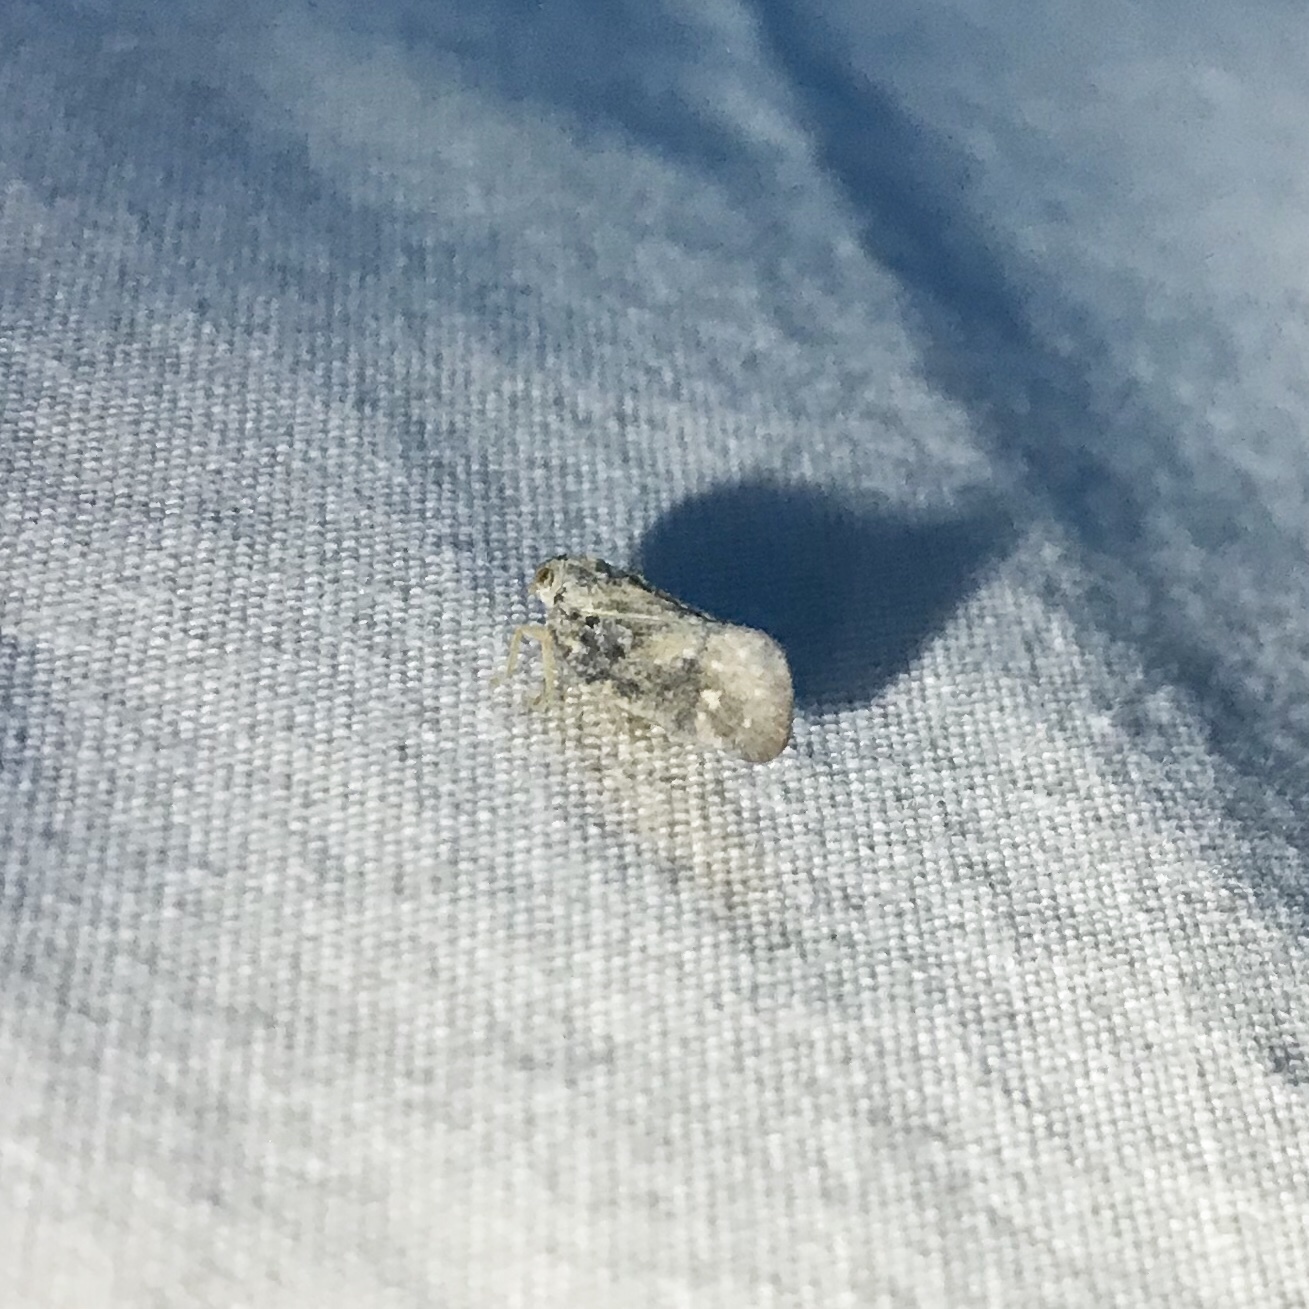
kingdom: Animalia
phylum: Arthropoda
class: Insecta
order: Hemiptera
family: Flatidae
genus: Metcalfa
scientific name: Metcalfa pruinosa
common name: Citrus flatid planthopper
